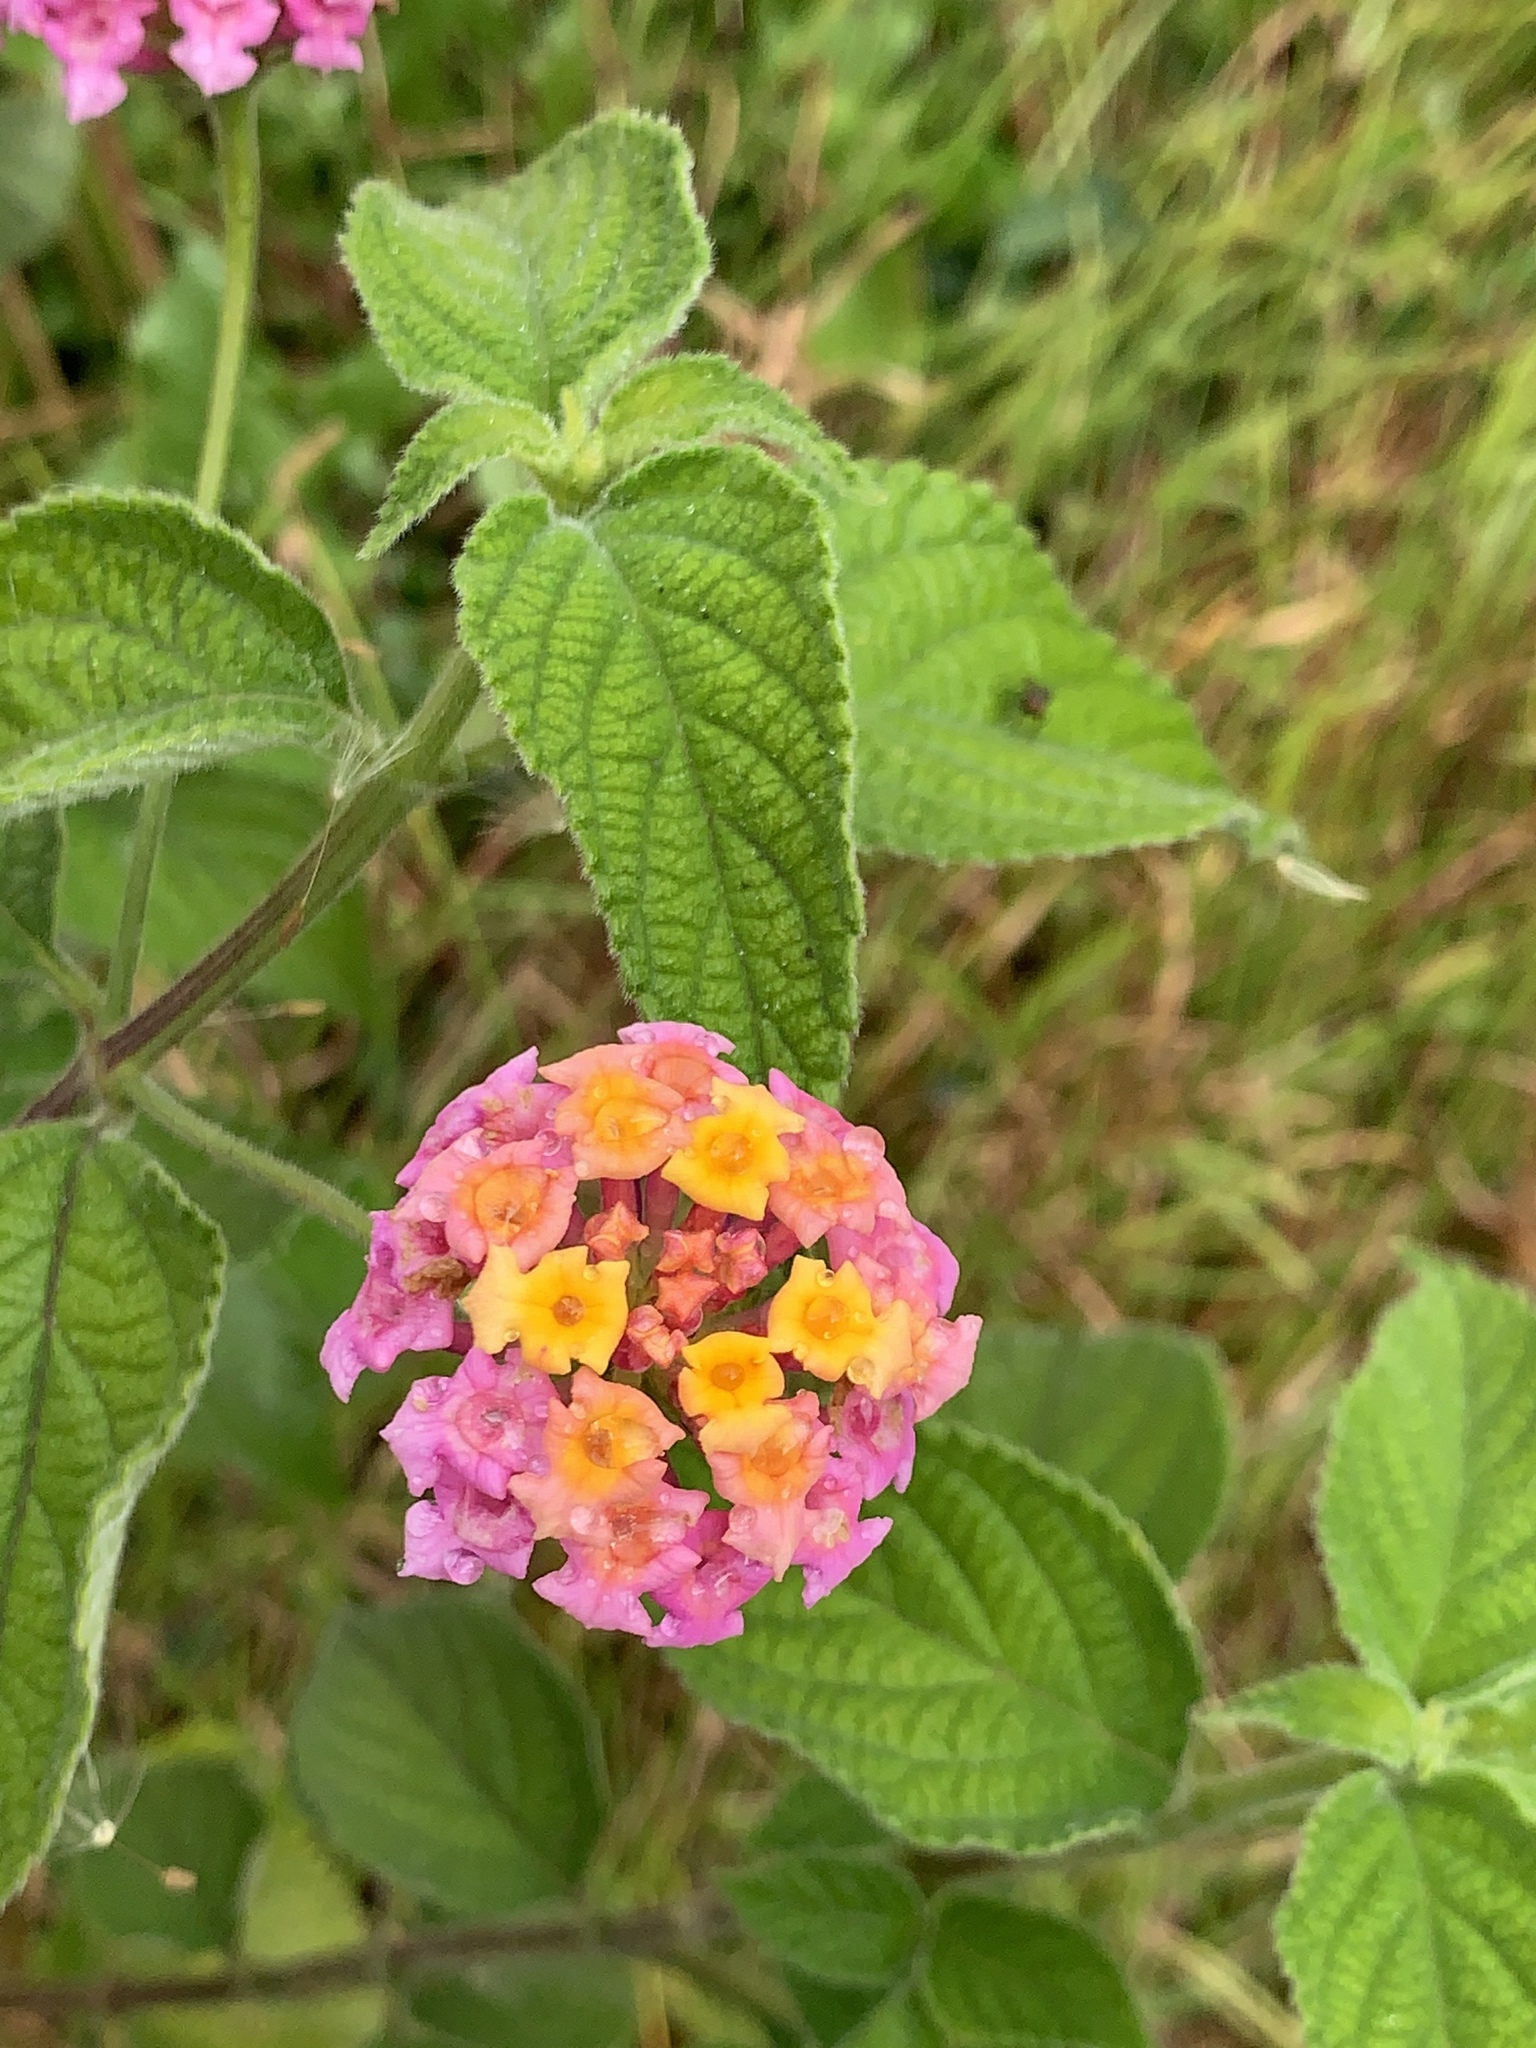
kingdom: Plantae
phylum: Tracheophyta
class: Magnoliopsida
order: Lamiales
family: Verbenaceae
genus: Lantana
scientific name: Lantana camara
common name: Lantana
